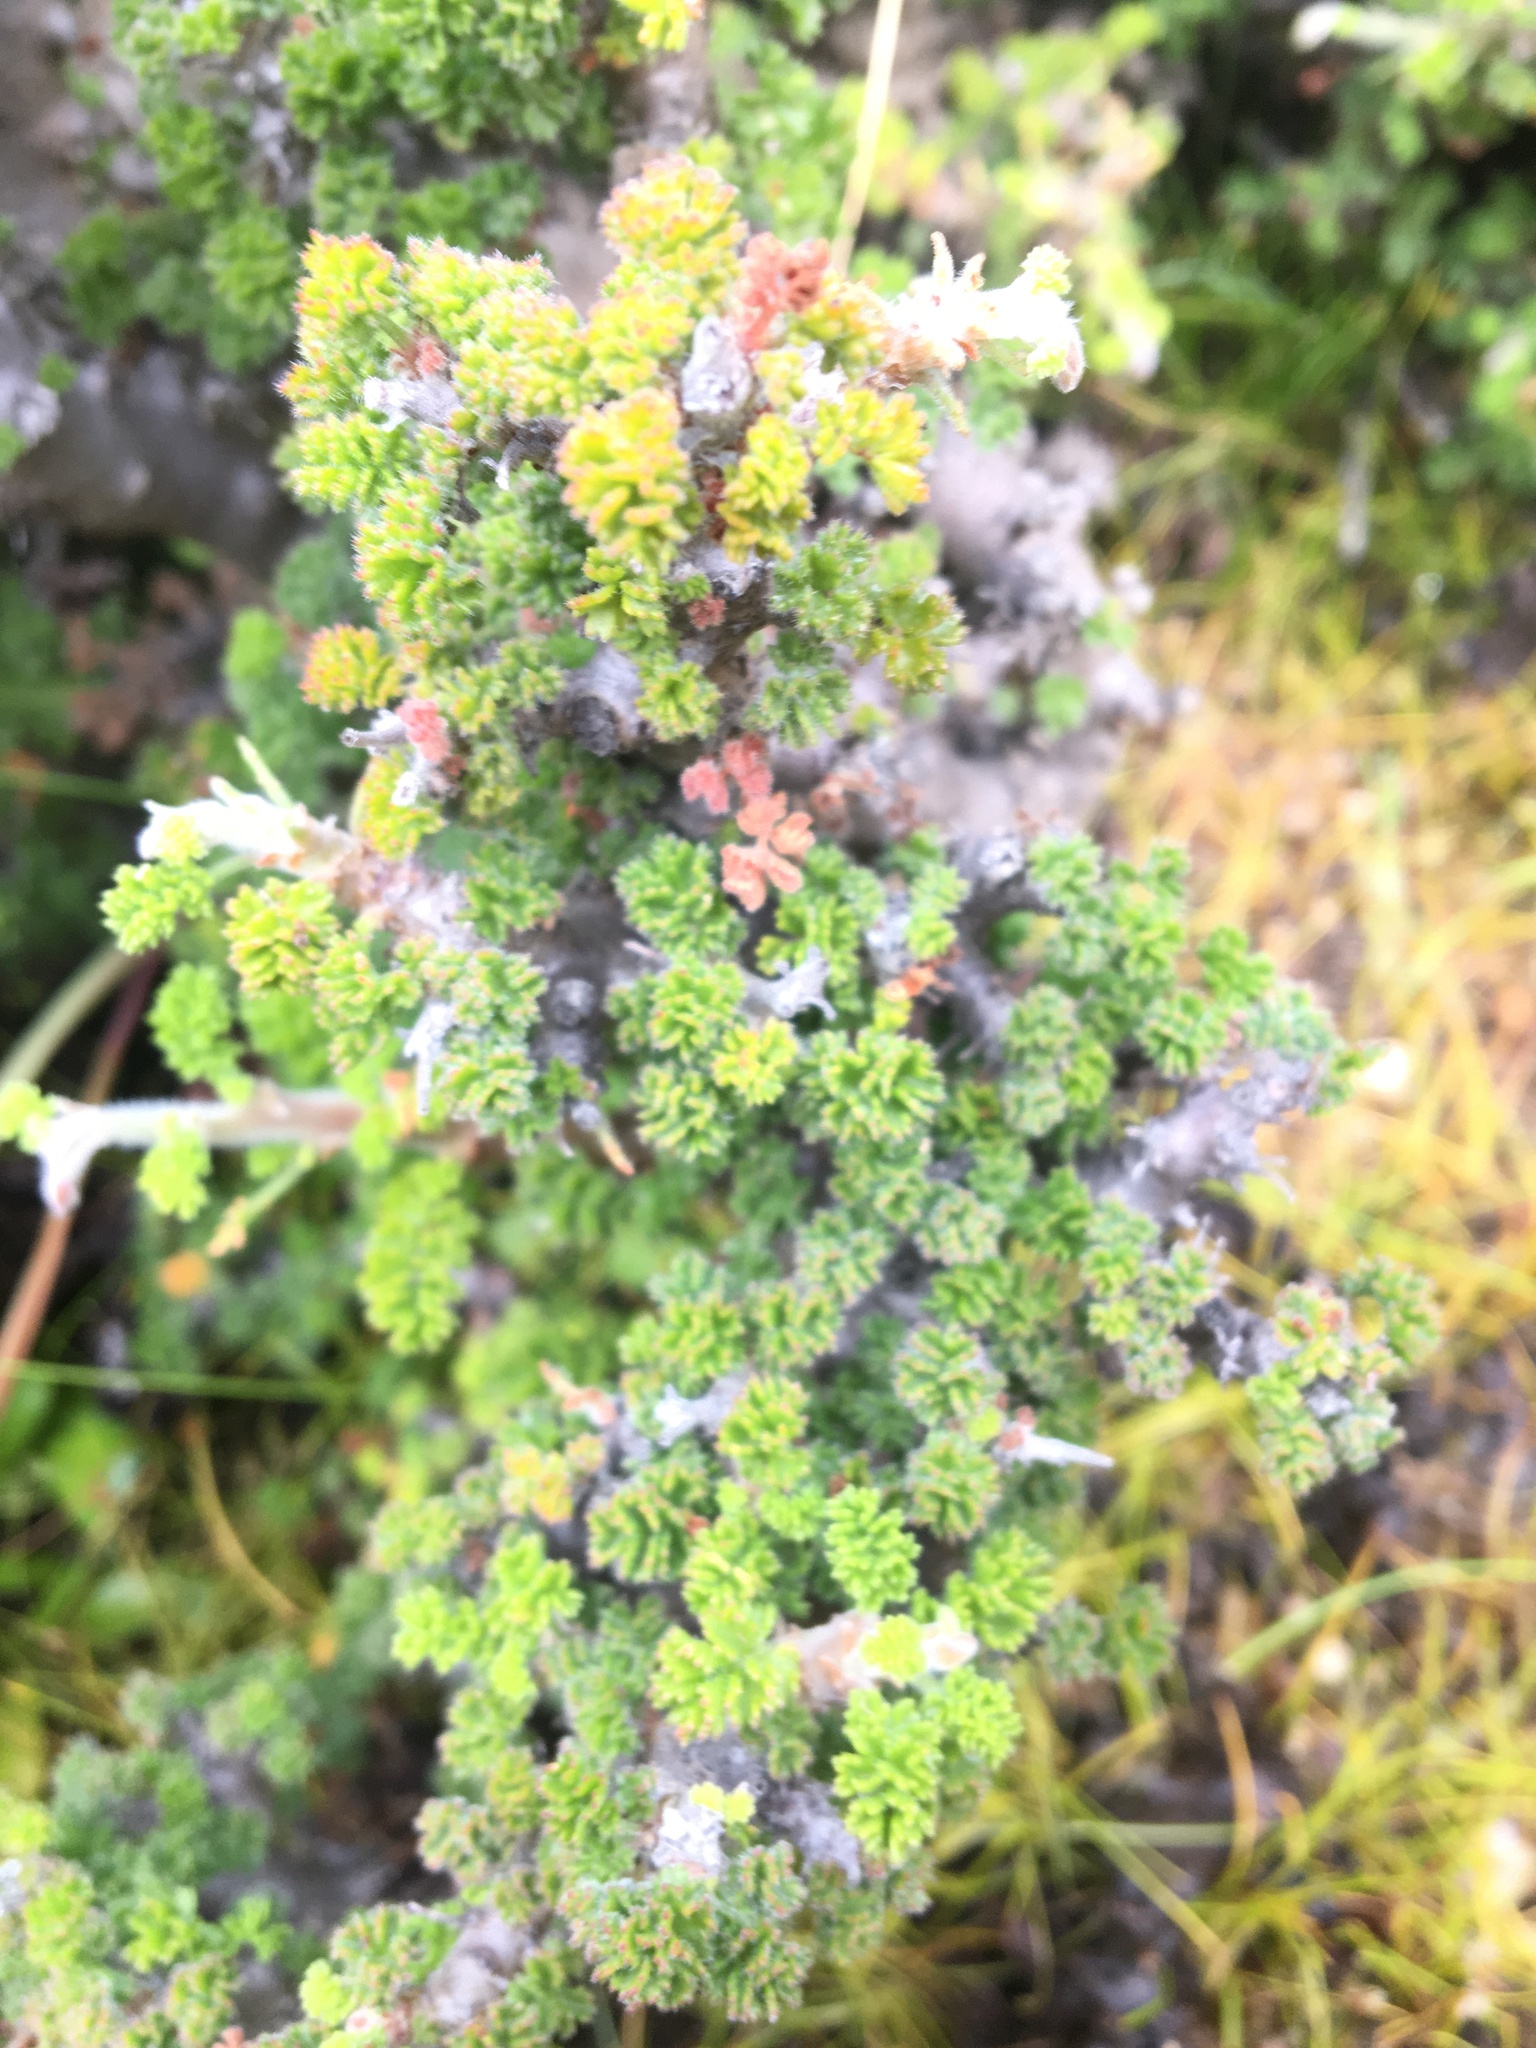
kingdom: Plantae
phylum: Tracheophyta
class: Magnoliopsida
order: Geraniales
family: Geraniaceae
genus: Pelargonium
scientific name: Pelargonium alternans
